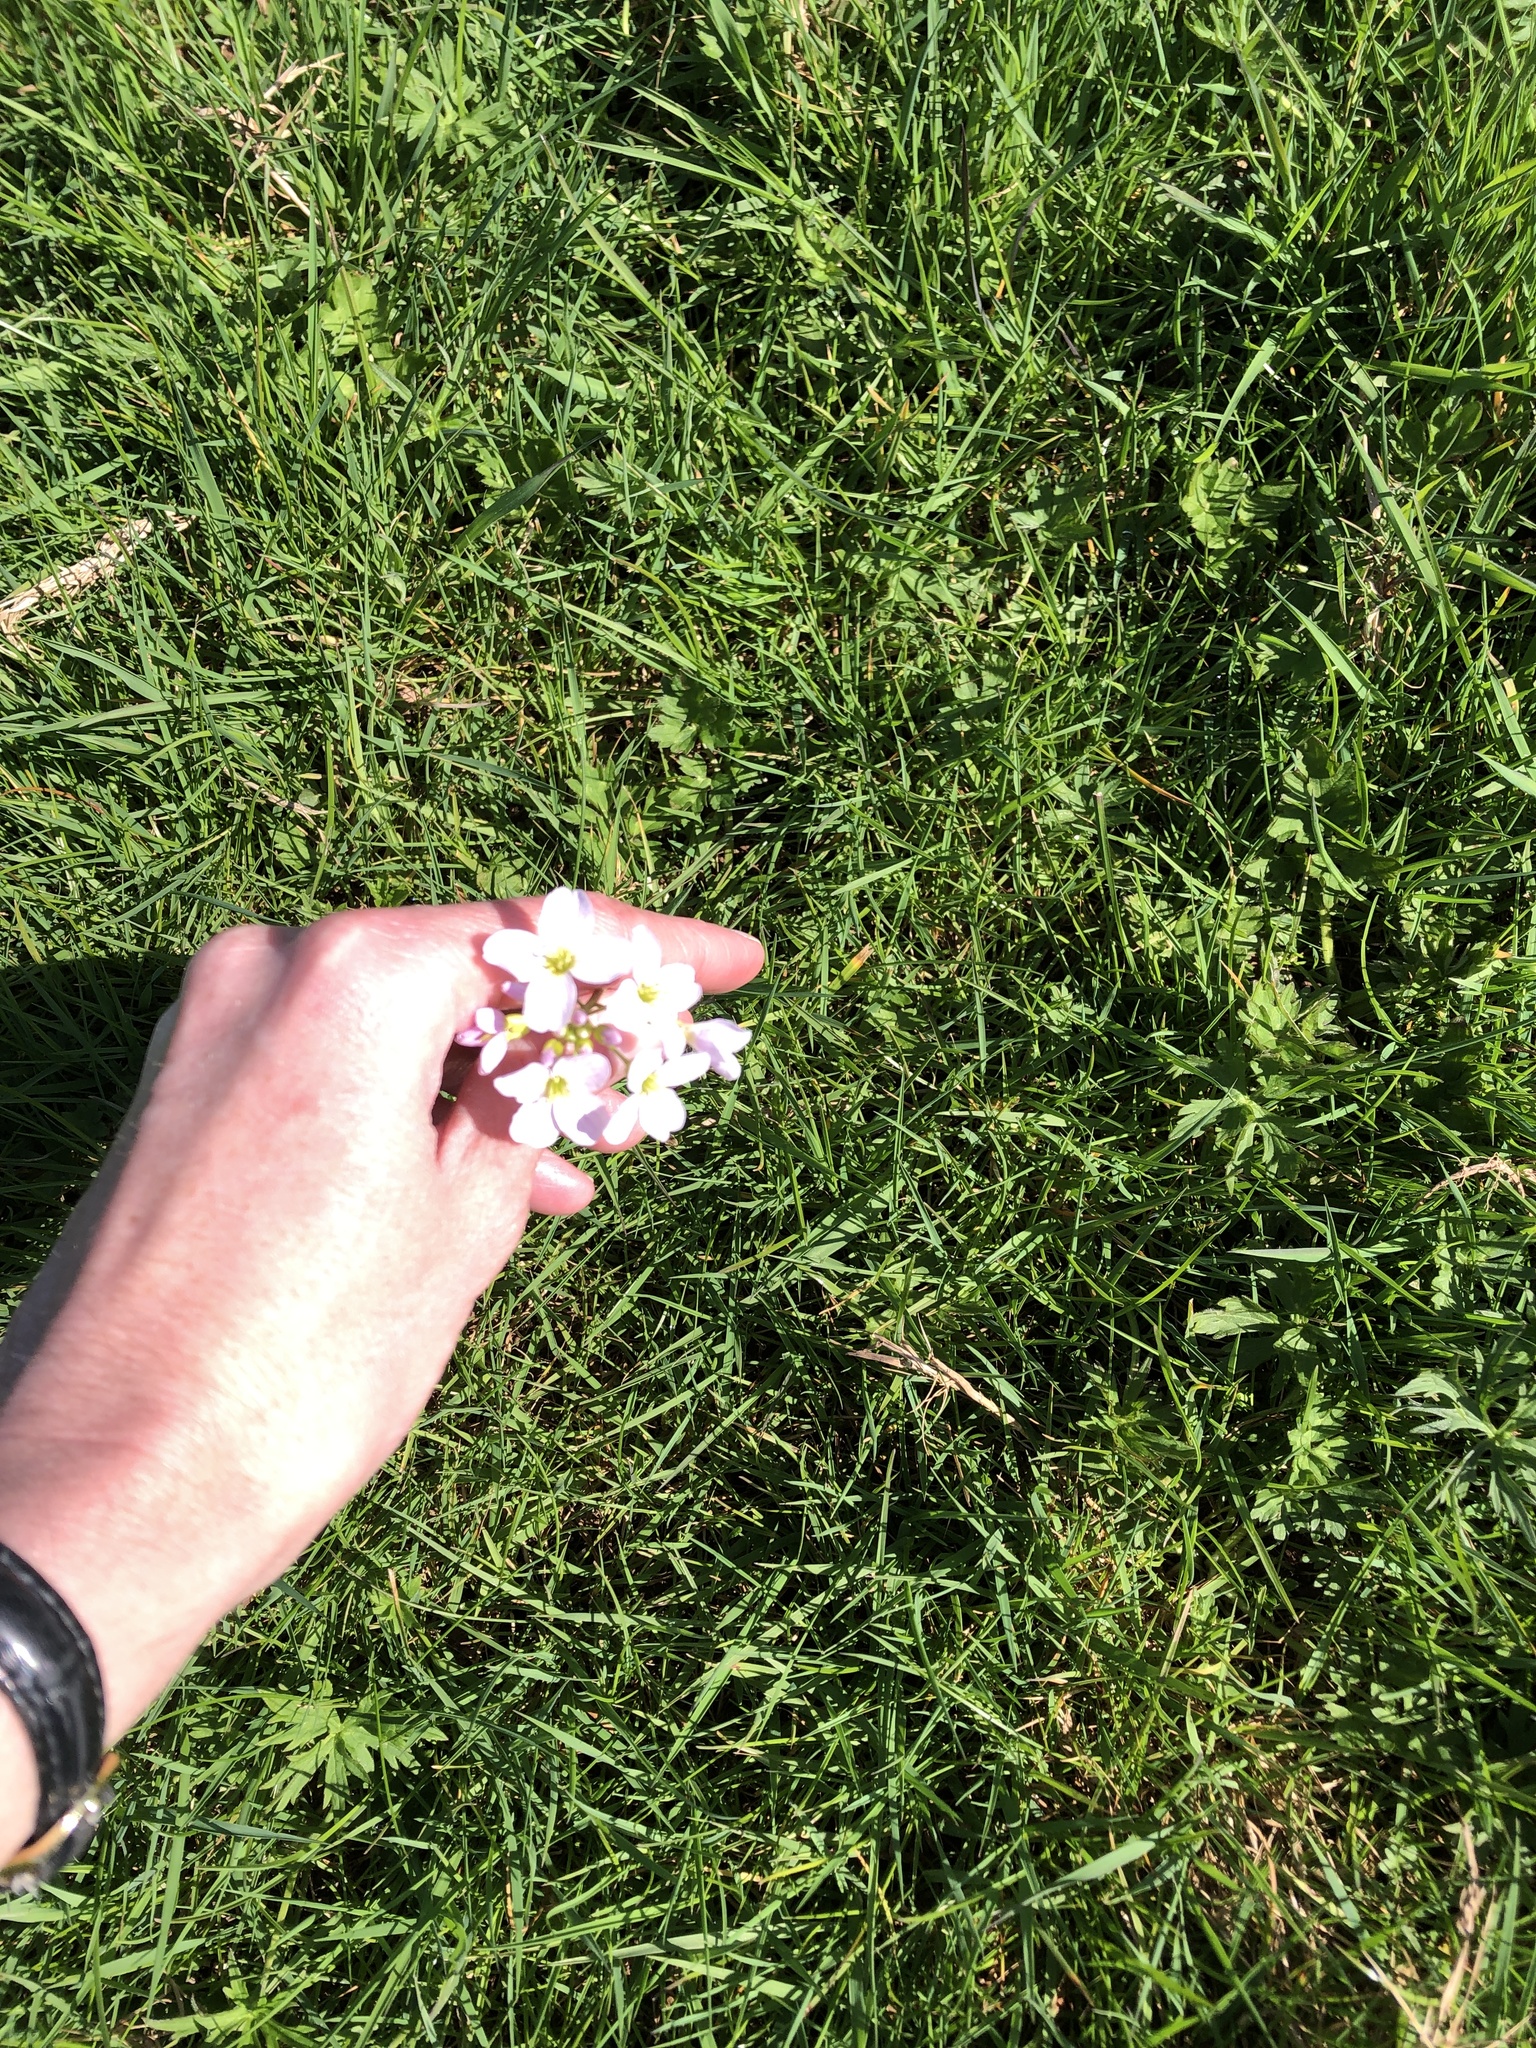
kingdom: Plantae
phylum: Tracheophyta
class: Magnoliopsida
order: Brassicales
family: Brassicaceae
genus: Cardamine
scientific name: Cardamine pratensis
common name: Cuckoo flower
